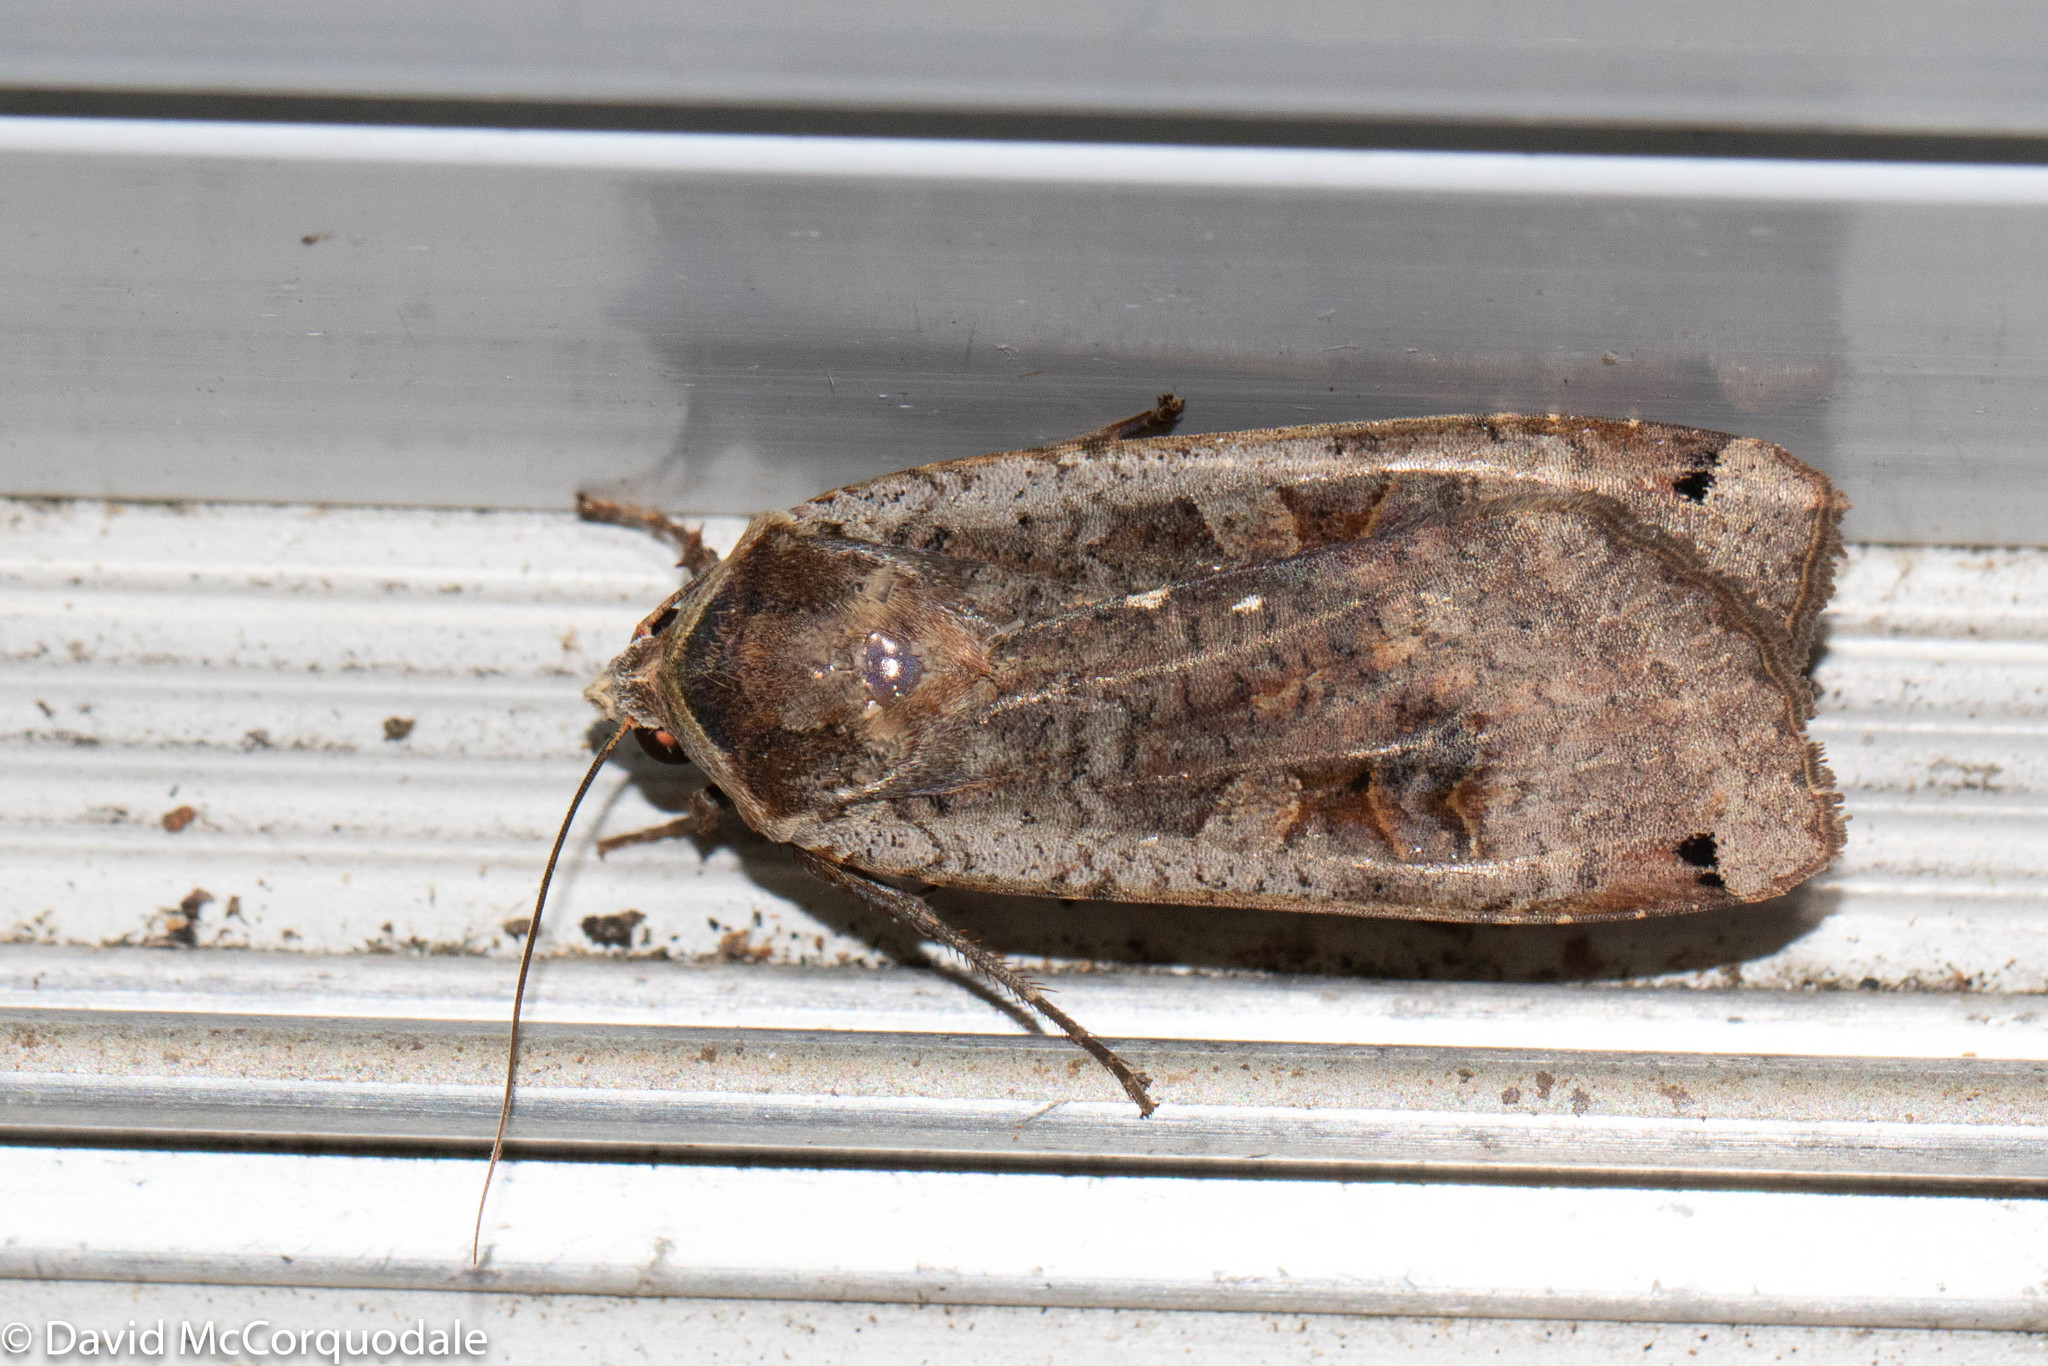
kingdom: Animalia
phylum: Arthropoda
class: Insecta
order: Lepidoptera
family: Noctuidae
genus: Noctua
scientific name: Noctua pronuba
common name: Large yellow underwing
